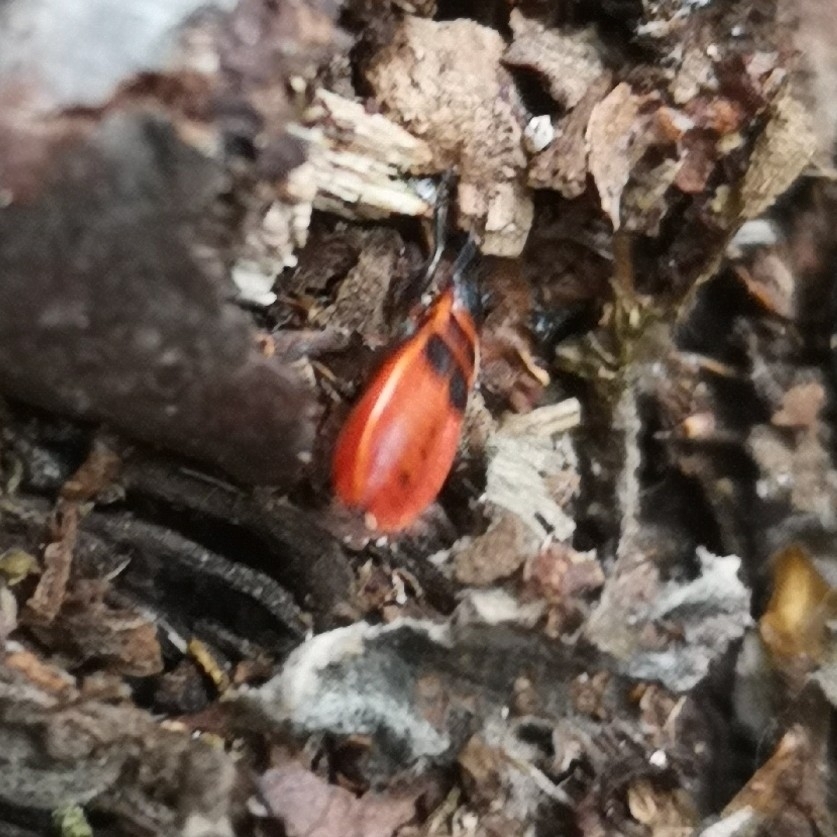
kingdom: Animalia
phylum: Arthropoda
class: Insecta
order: Hemiptera
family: Pyrrhocoridae
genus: Pyrrhocoris
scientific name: Pyrrhocoris apterus
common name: Firebug
